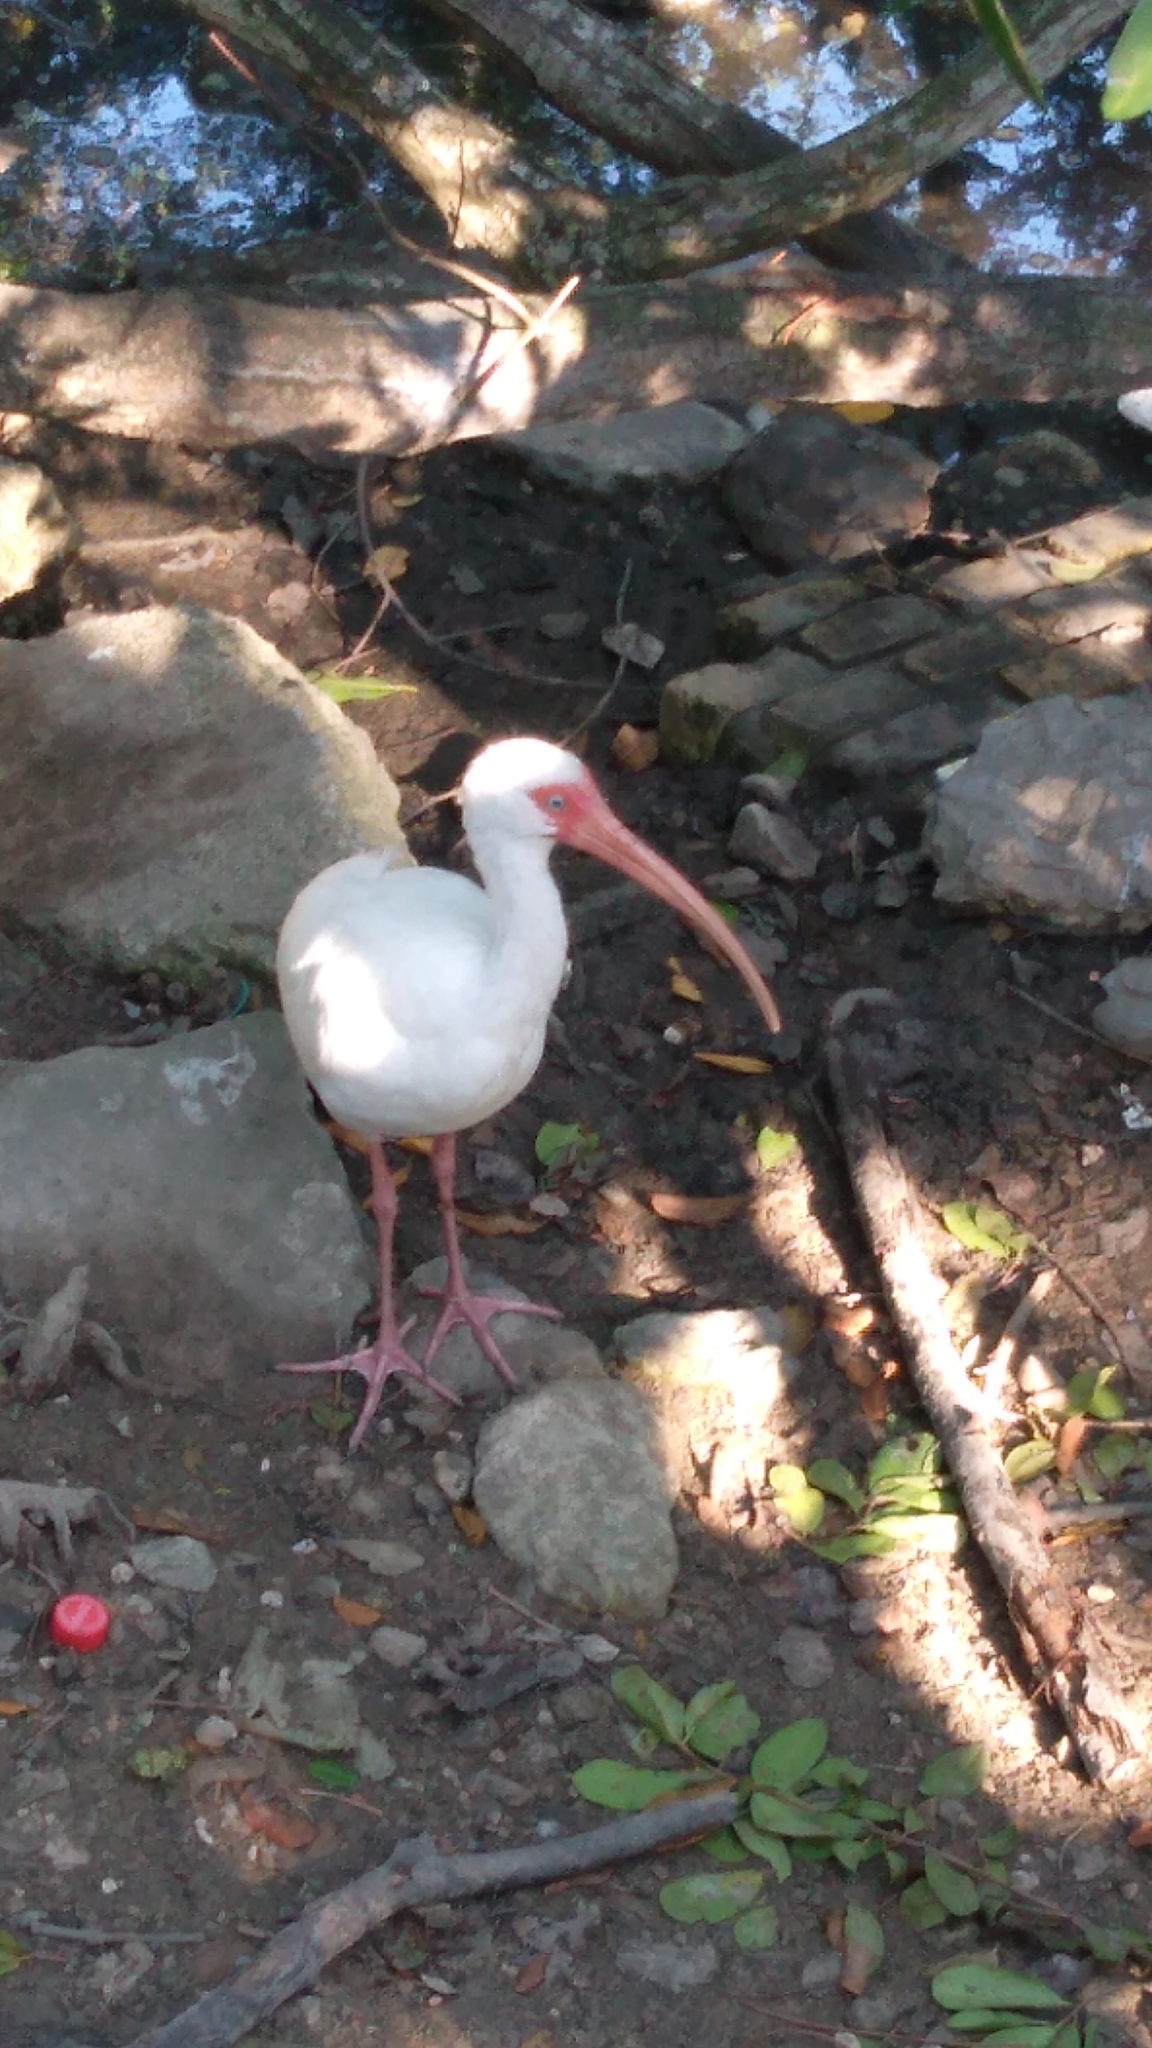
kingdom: Animalia
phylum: Chordata
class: Aves
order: Pelecaniformes
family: Threskiornithidae
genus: Eudocimus
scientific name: Eudocimus albus
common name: White ibis
